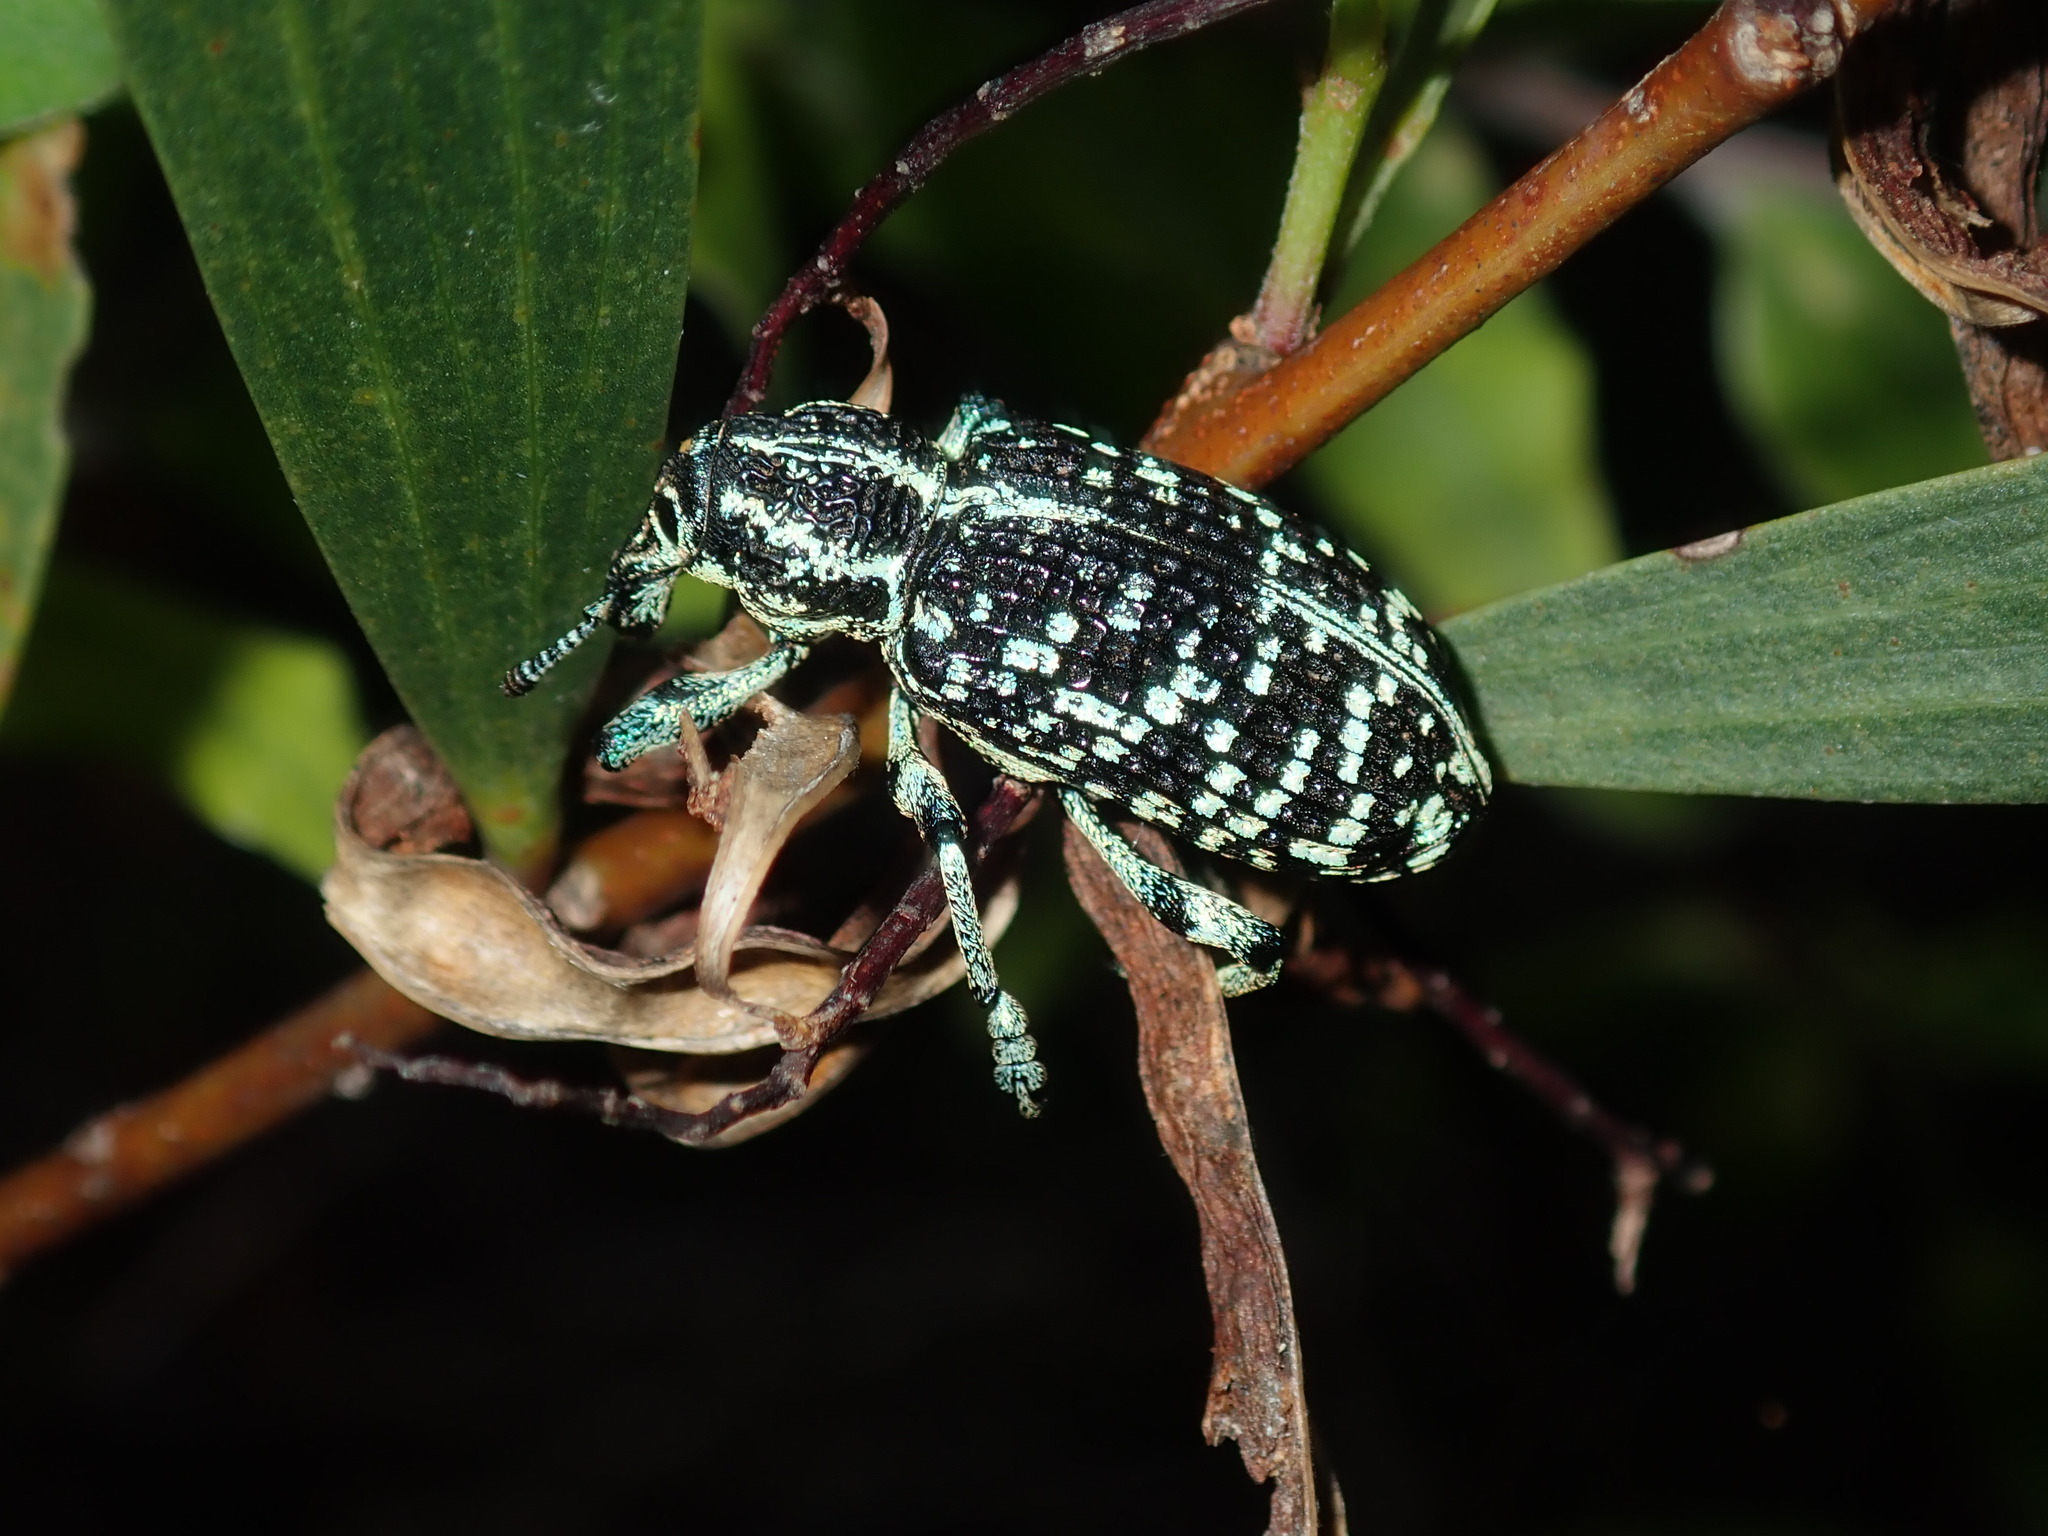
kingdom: Animalia
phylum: Arthropoda
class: Insecta
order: Coleoptera
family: Curculionidae
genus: Chrysolopus
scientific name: Chrysolopus spectabilis
